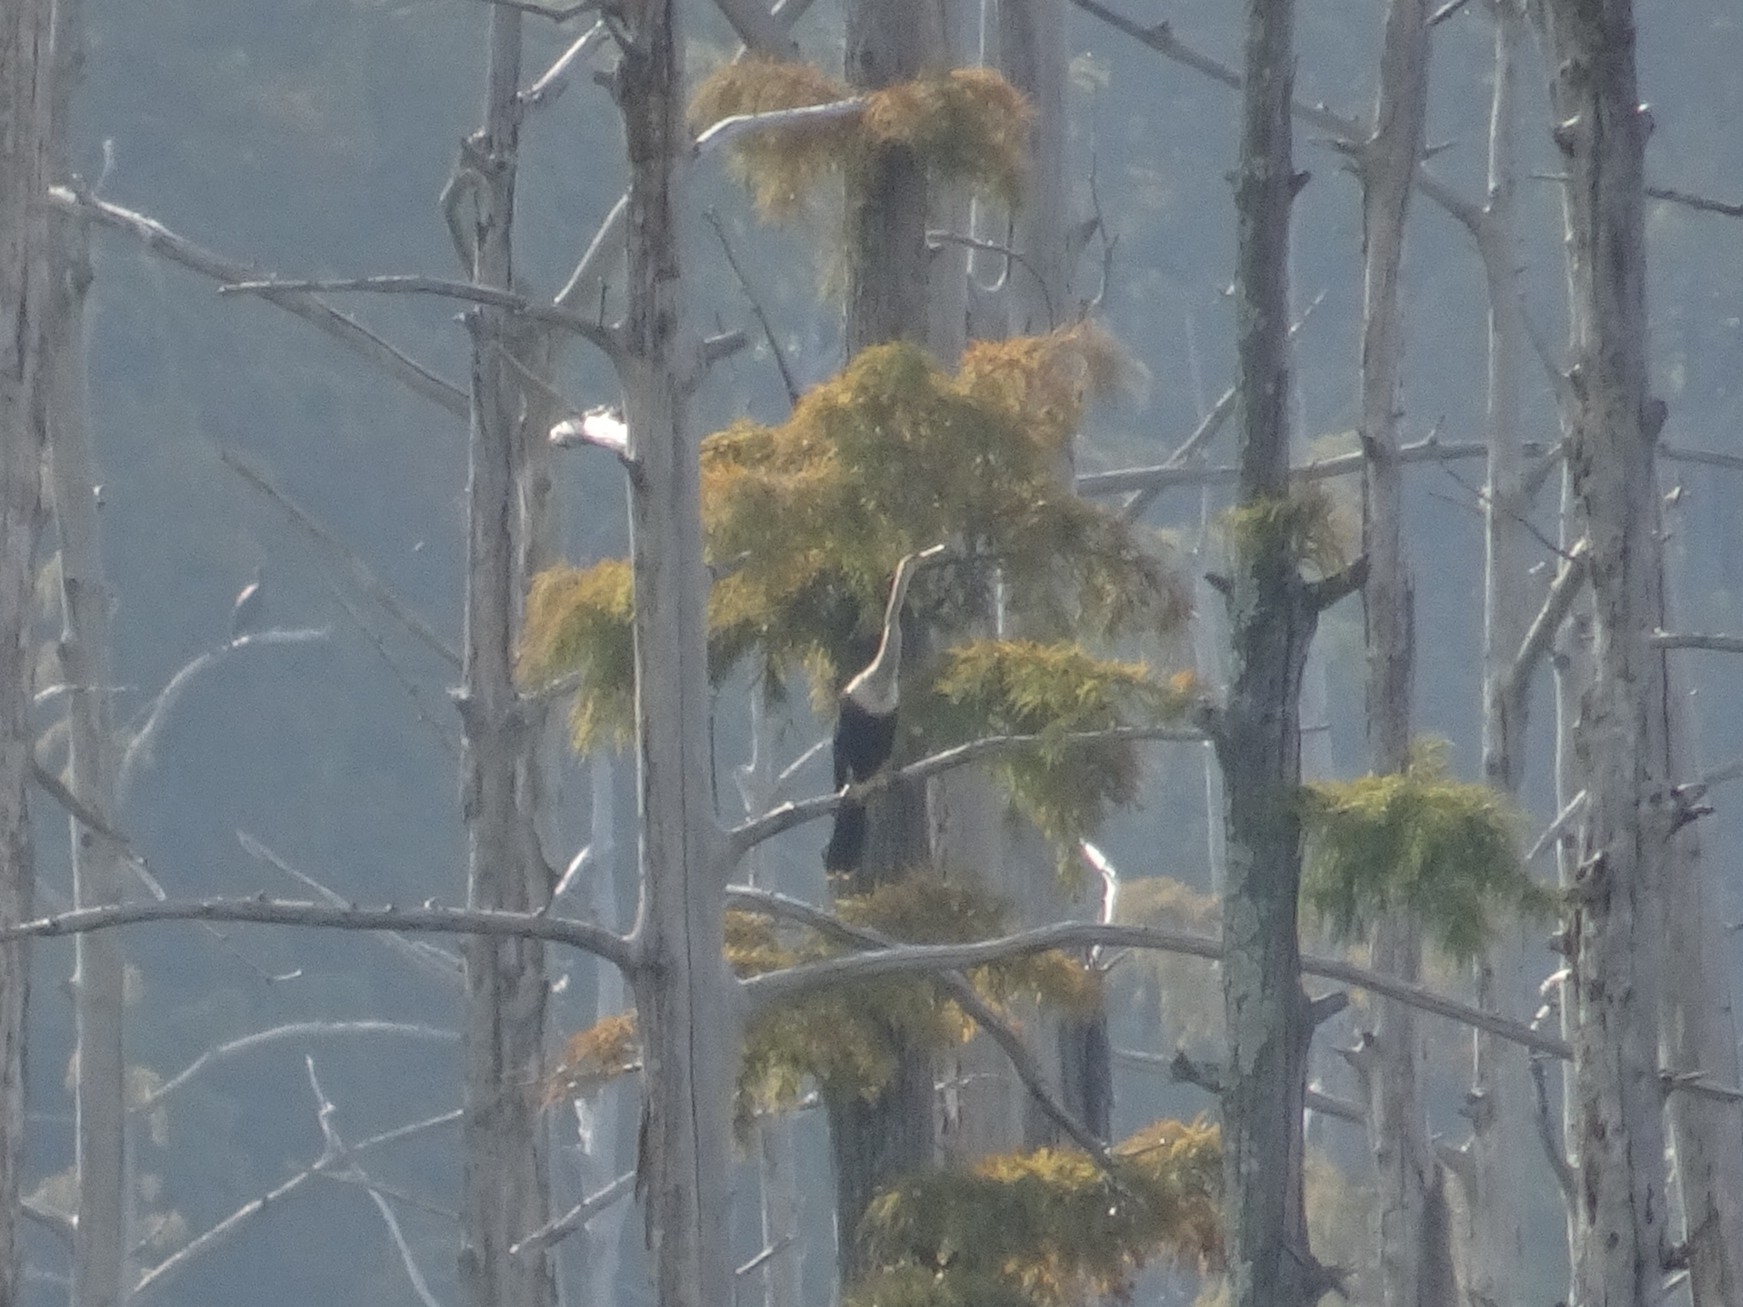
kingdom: Animalia
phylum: Chordata
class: Aves
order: Suliformes
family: Anhingidae
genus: Anhinga
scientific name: Anhinga anhinga
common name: Anhinga
